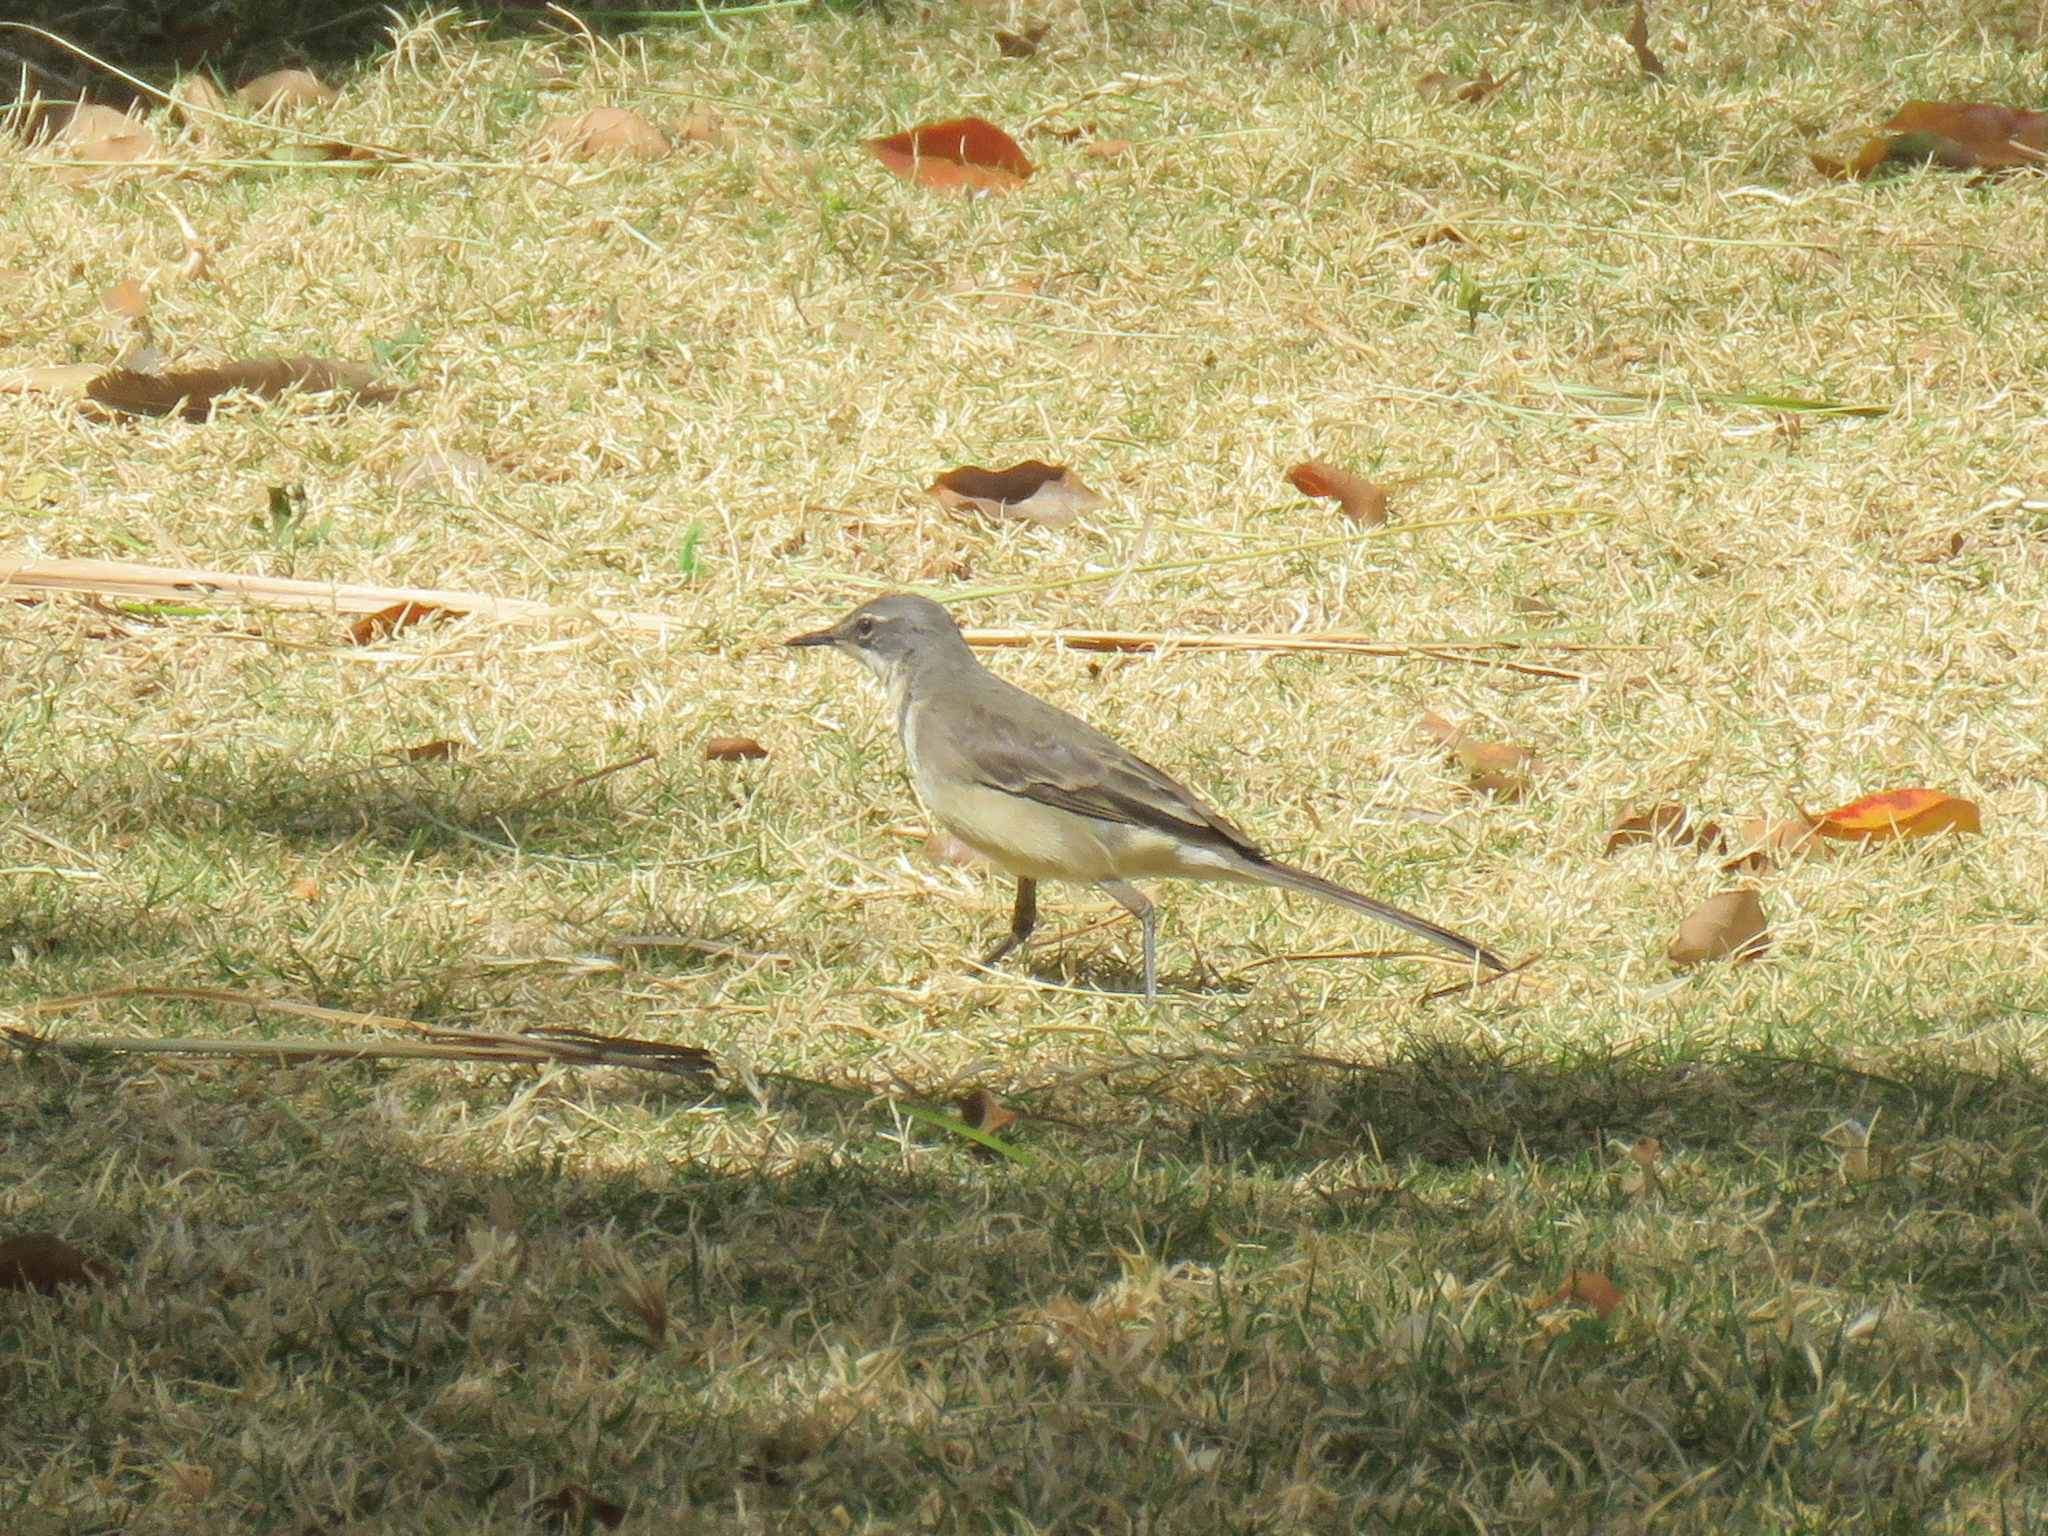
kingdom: Animalia
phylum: Chordata
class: Aves
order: Passeriformes
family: Motacillidae
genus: Motacilla
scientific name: Motacilla capensis
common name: Cape wagtail
